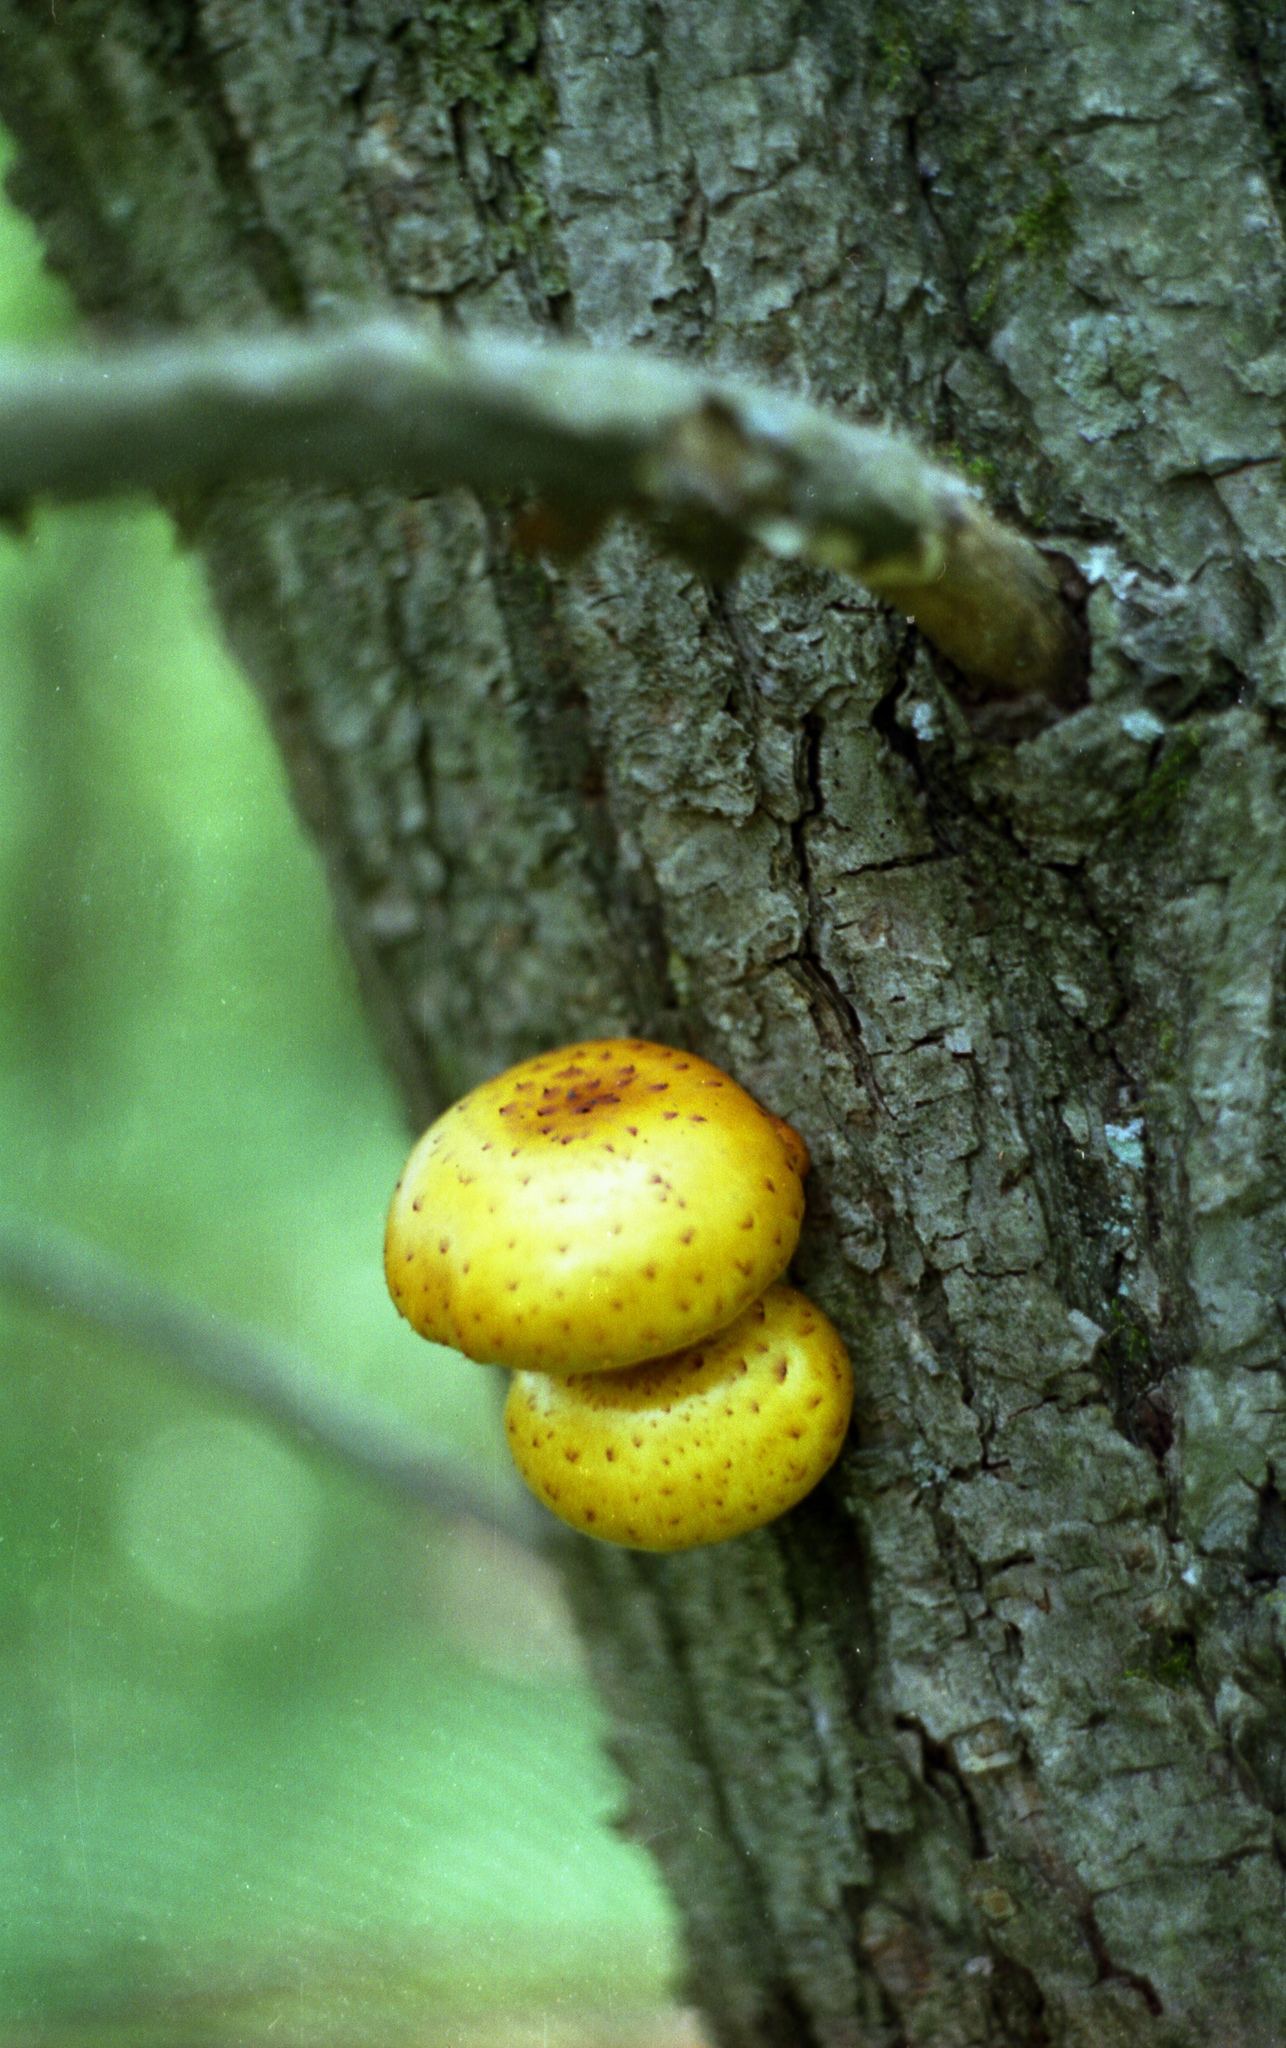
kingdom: Fungi
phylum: Basidiomycota
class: Agaricomycetes
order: Agaricales
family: Strophariaceae
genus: Pholiota
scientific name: Pholiota aurivella
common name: Golden scalycap
